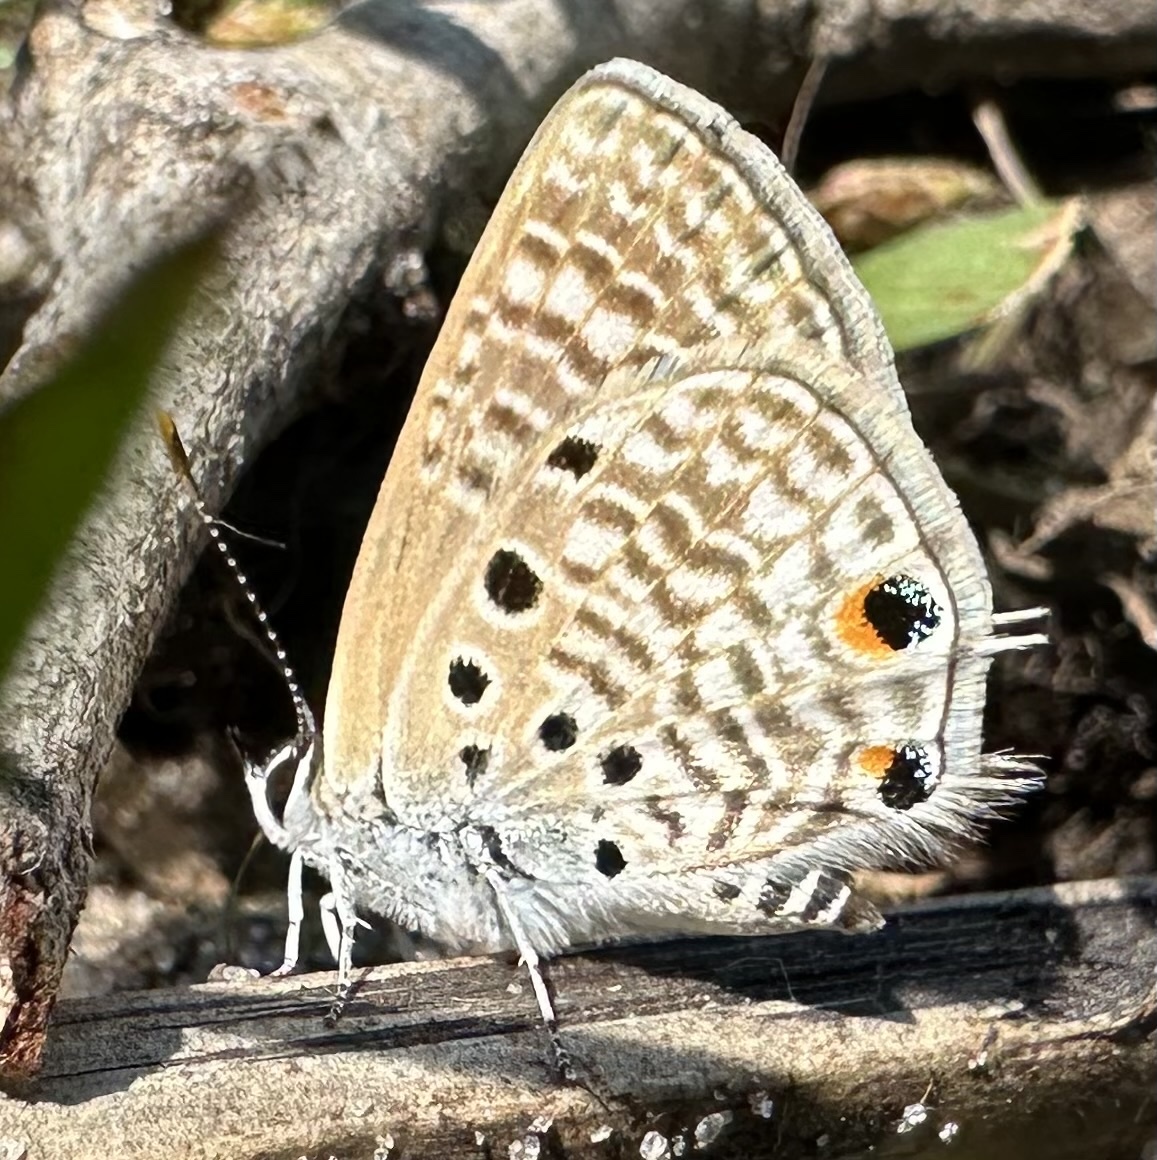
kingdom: Animalia
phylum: Arthropoda
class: Insecta
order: Lepidoptera
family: Lycaenidae
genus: Anthene
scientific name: Anthene amarah
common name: Black-striped hairtail
